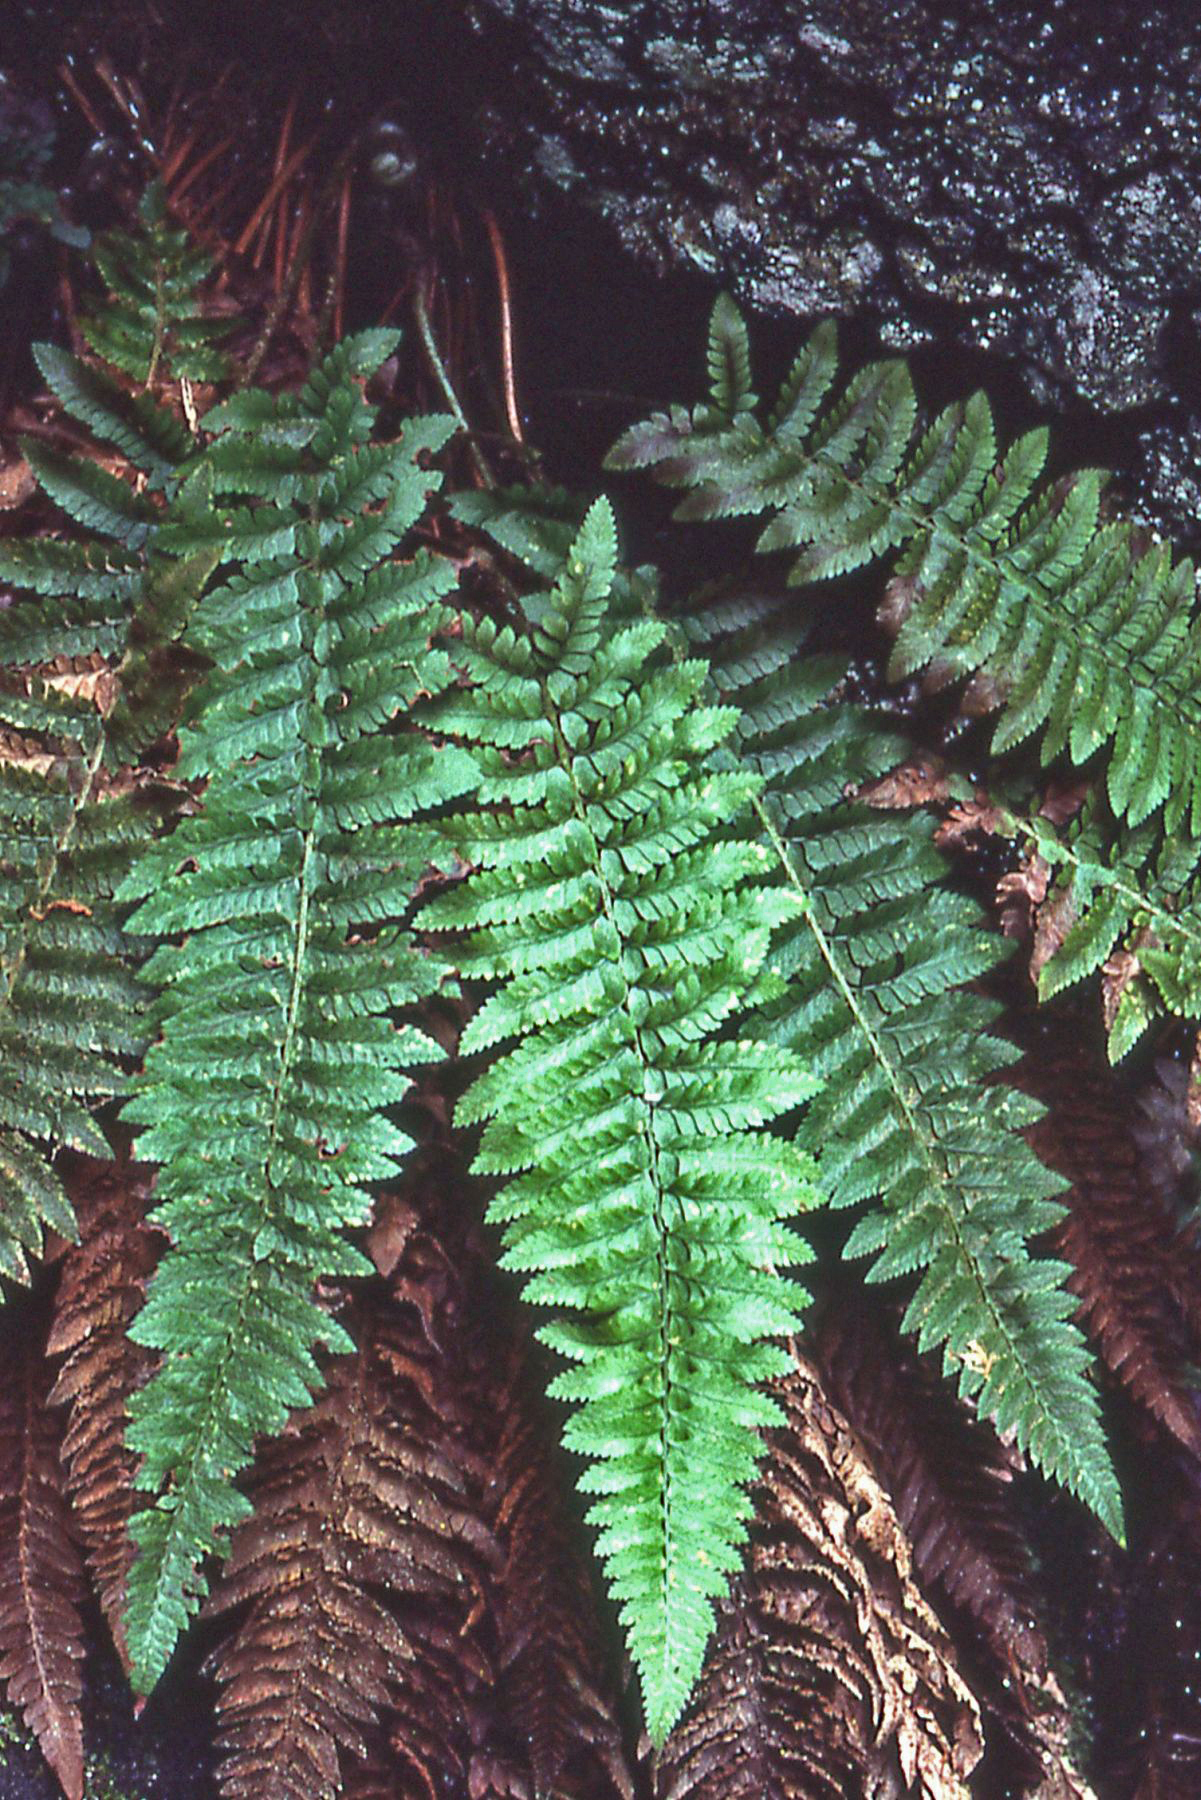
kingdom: Plantae
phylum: Tracheophyta
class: Polypodiopsida
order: Polypodiales
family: Dryopteridaceae
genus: Polystichum
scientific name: Polystichum californicum
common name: California sword fern
